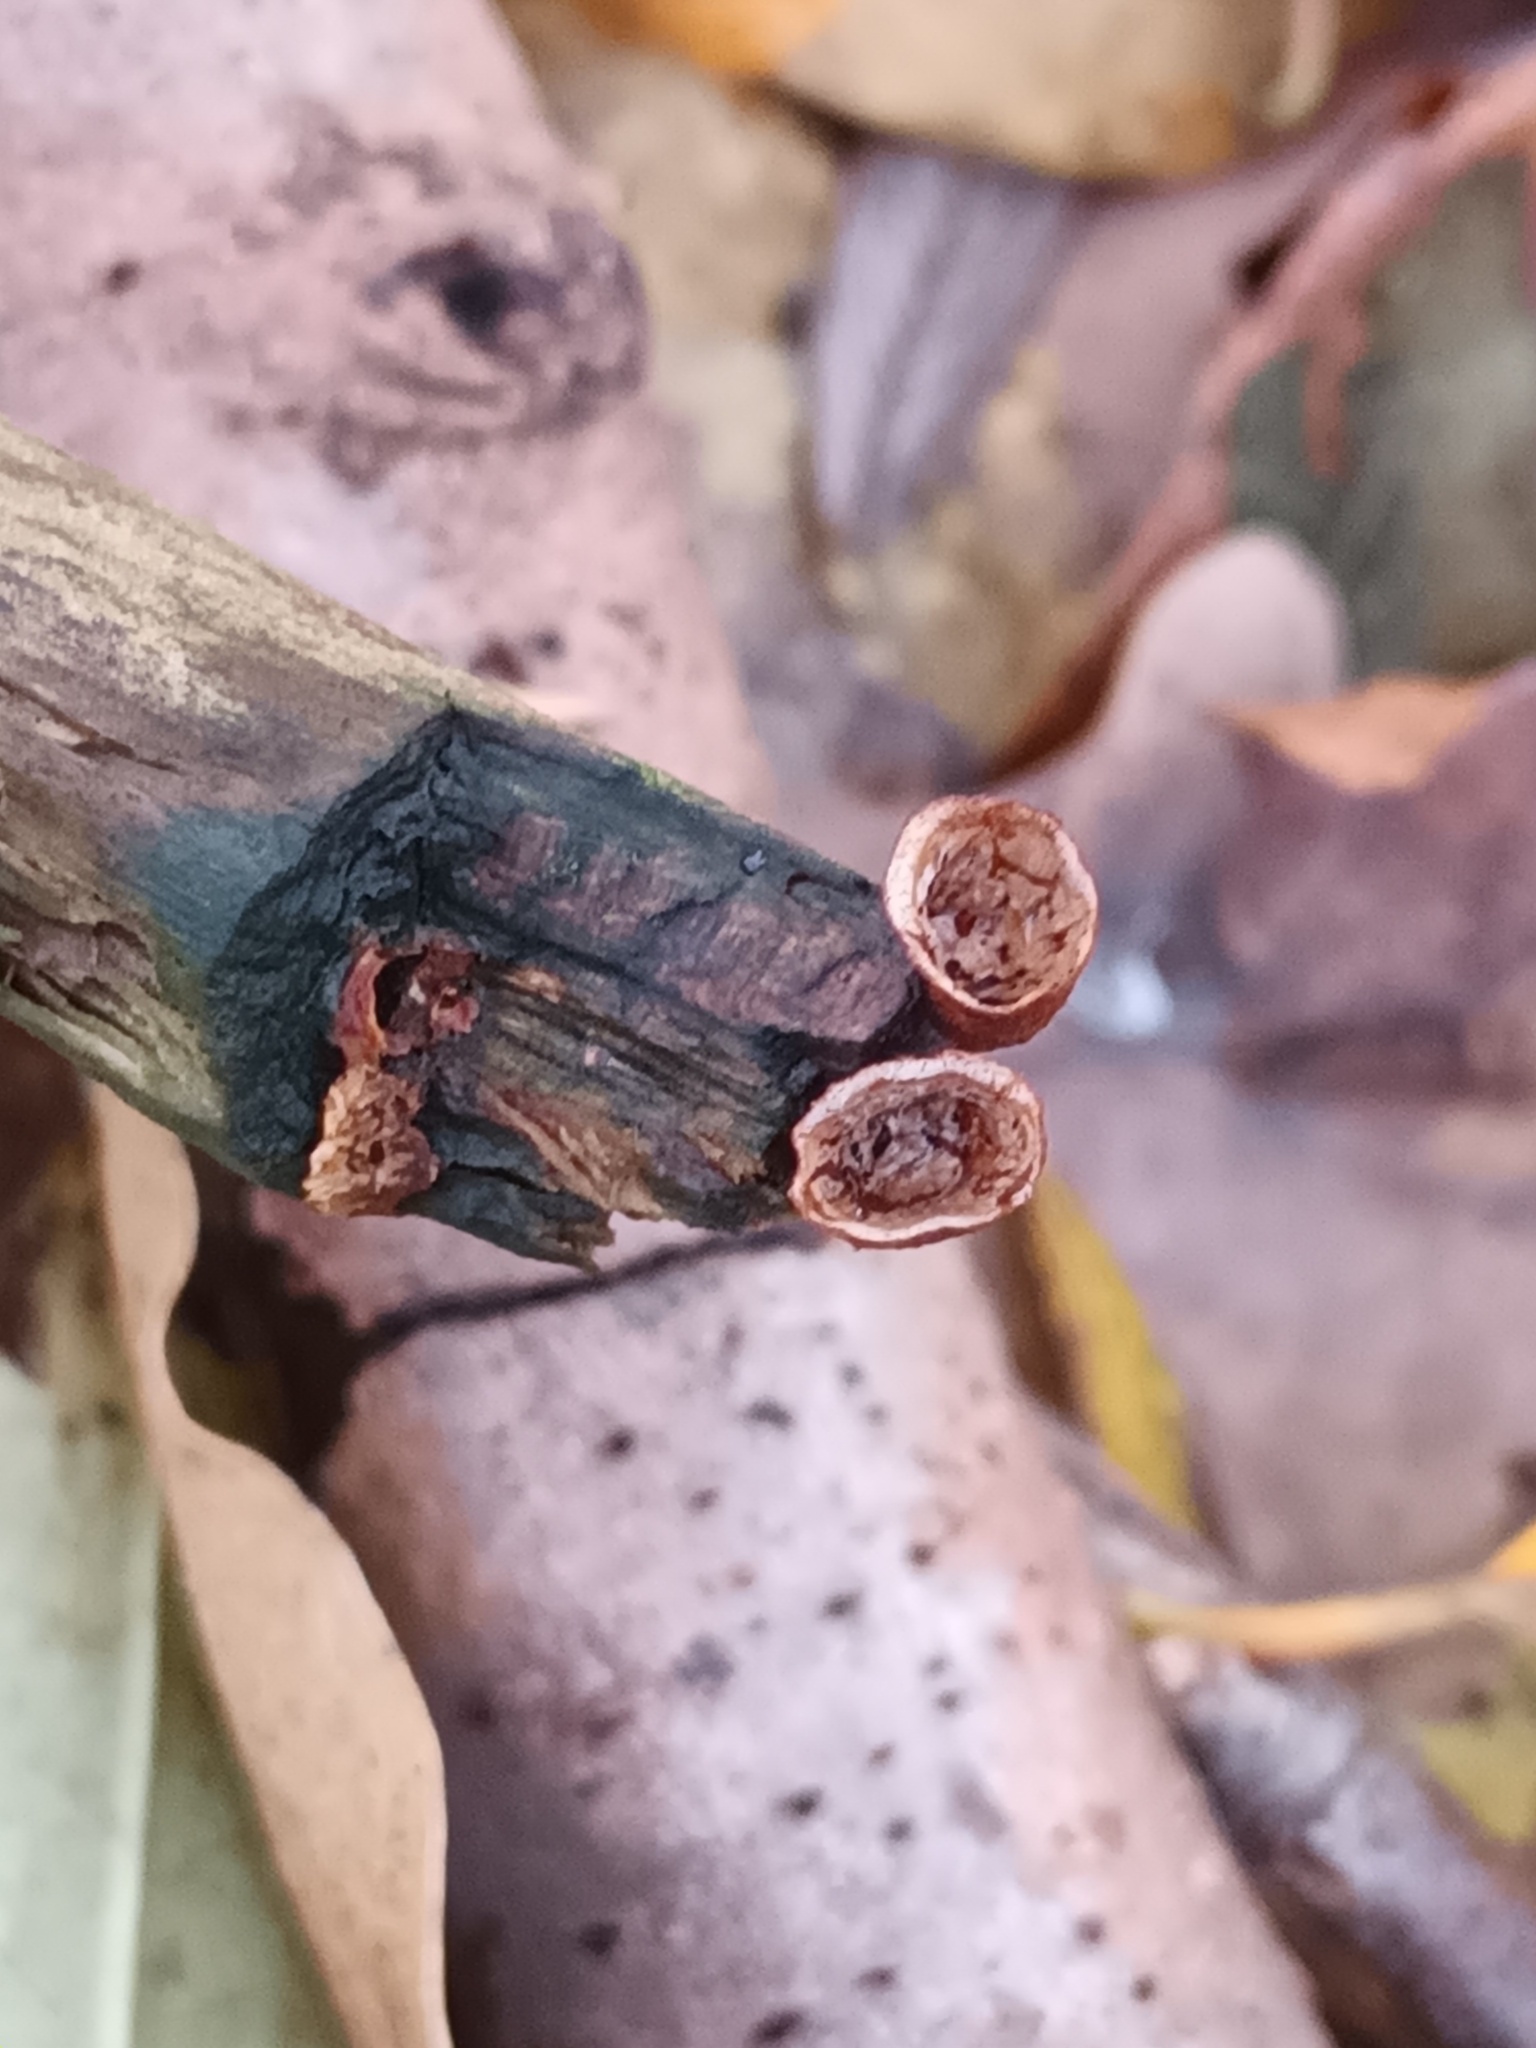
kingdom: Fungi
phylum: Basidiomycota
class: Agaricomycetes
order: Agaricales
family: Nidulariaceae
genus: Crucibulum
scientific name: Crucibulum laeve
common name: Common bird's nest
